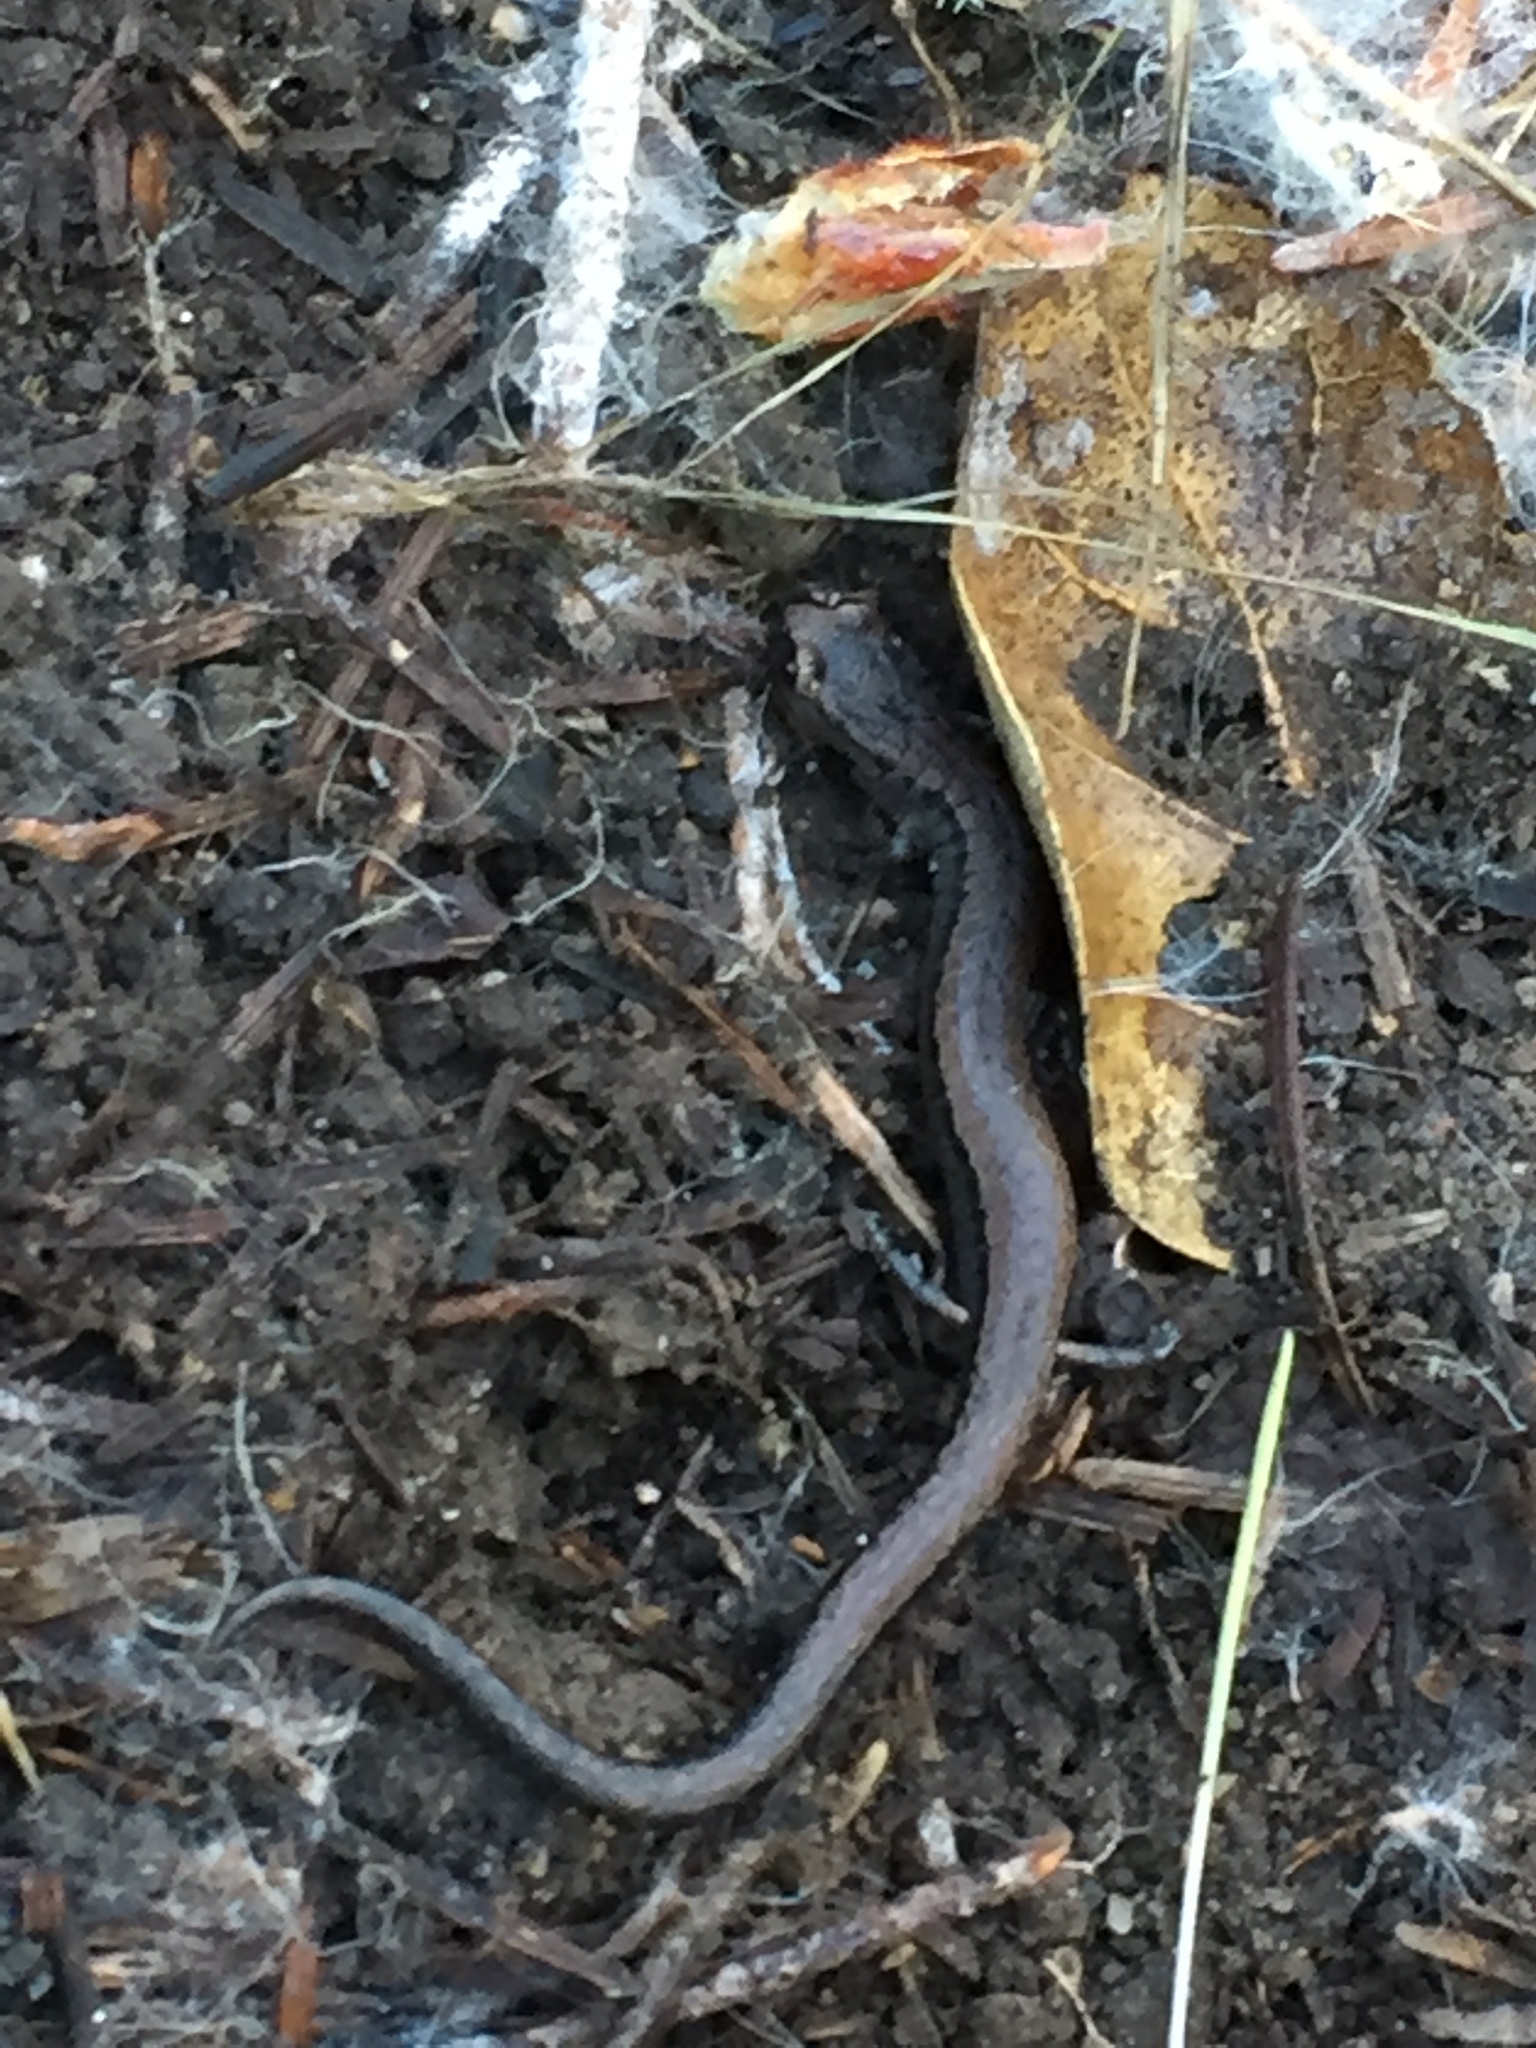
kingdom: Animalia
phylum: Chordata
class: Amphibia
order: Caudata
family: Plethodontidae
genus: Batrachoseps
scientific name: Batrachoseps attenuatus
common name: California slender salamander
